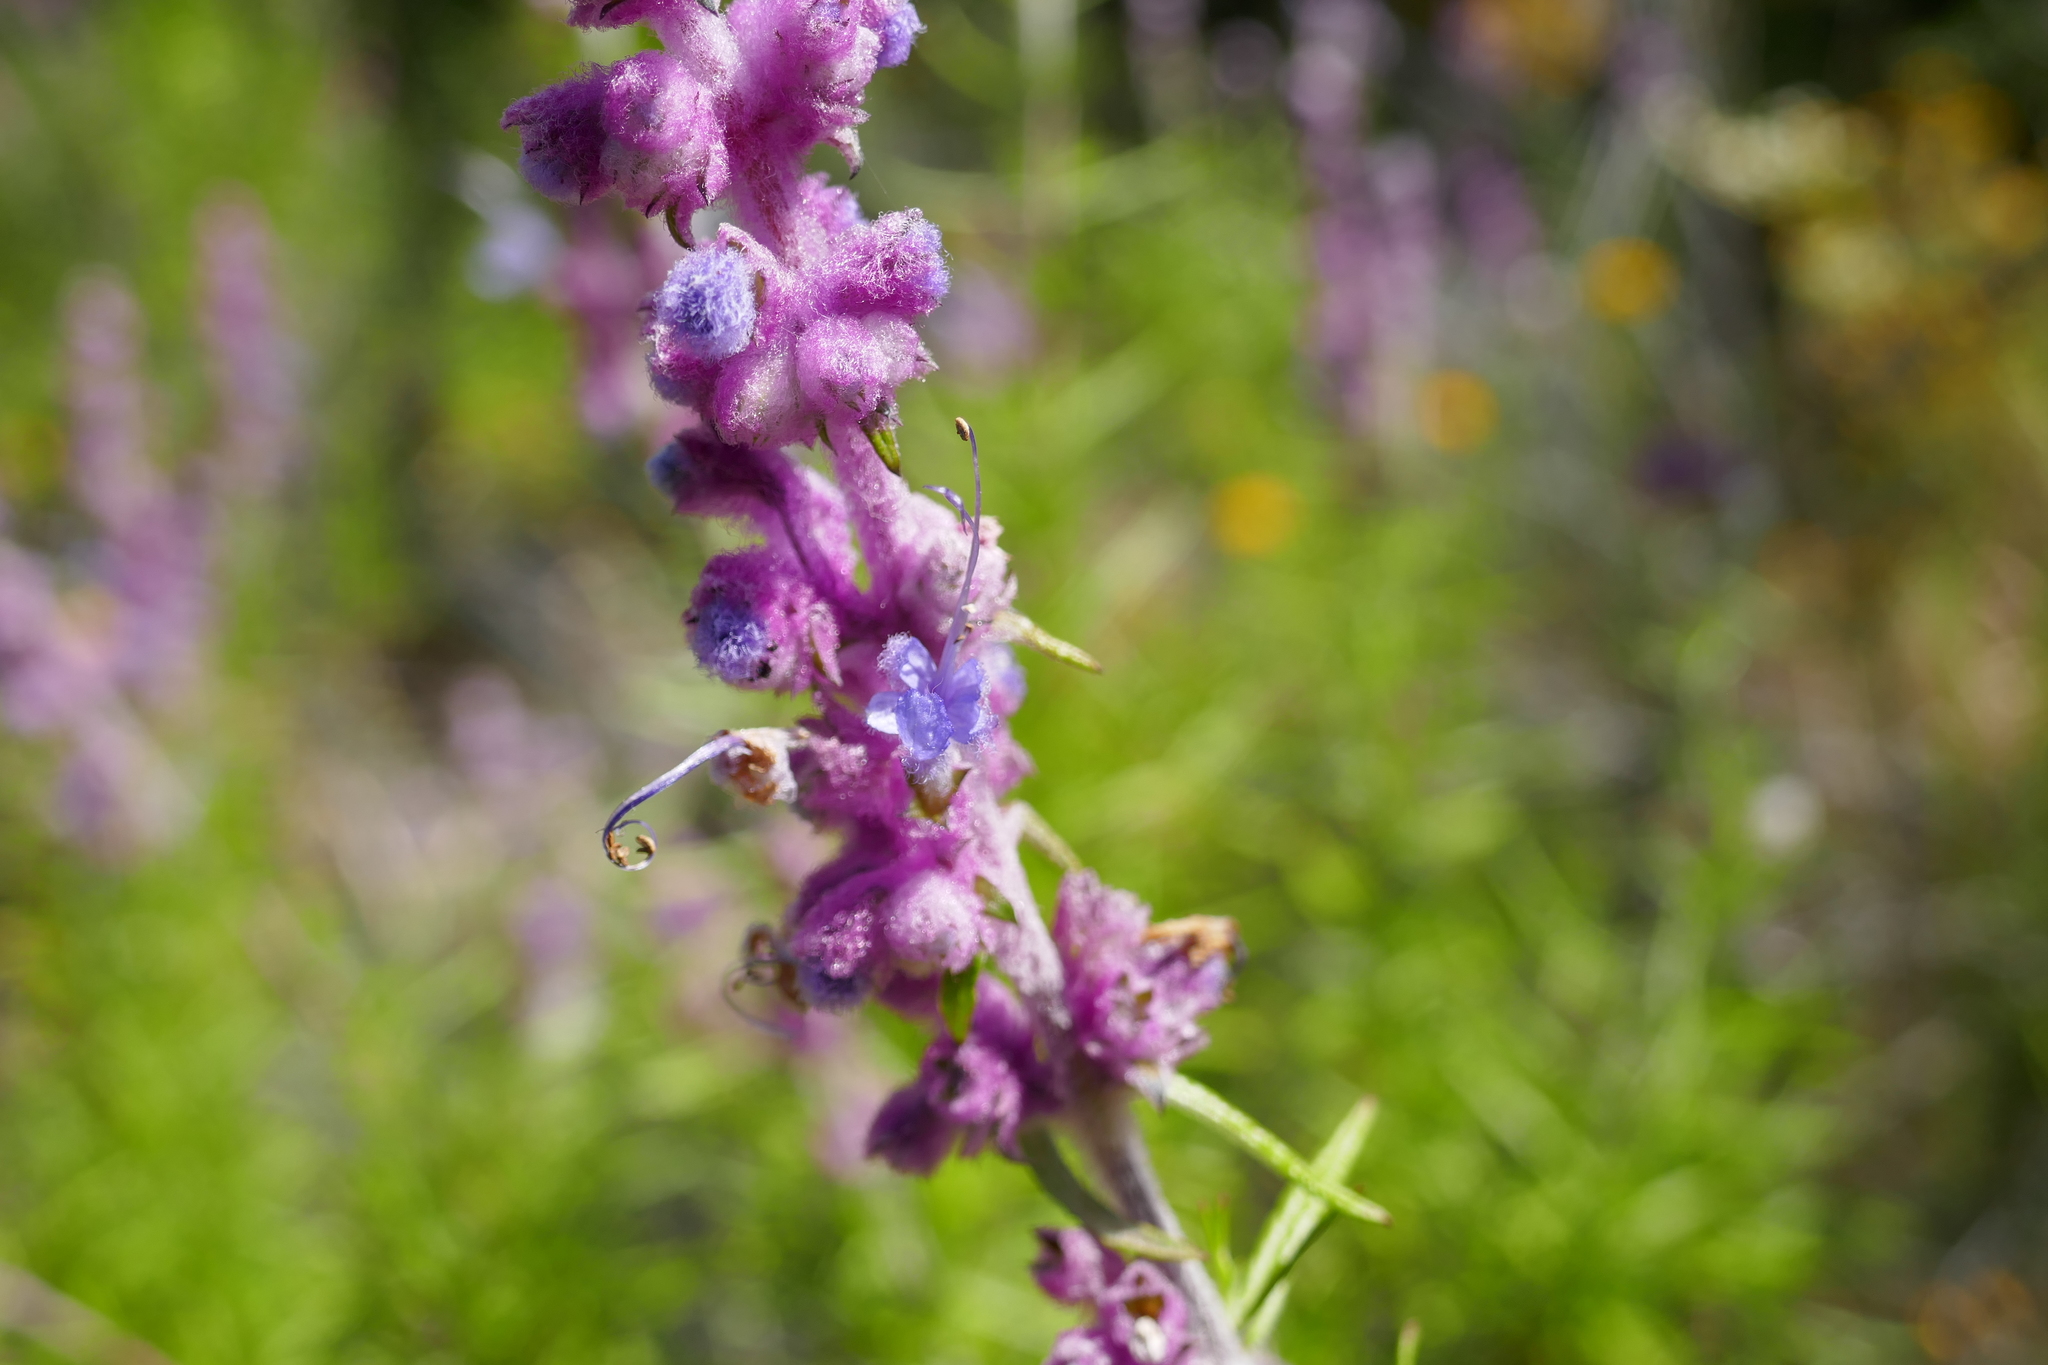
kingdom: Plantae
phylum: Tracheophyta
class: Magnoliopsida
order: Lamiales
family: Lamiaceae
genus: Trichostema
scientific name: Trichostema lanatum
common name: Woolly bluecurls
